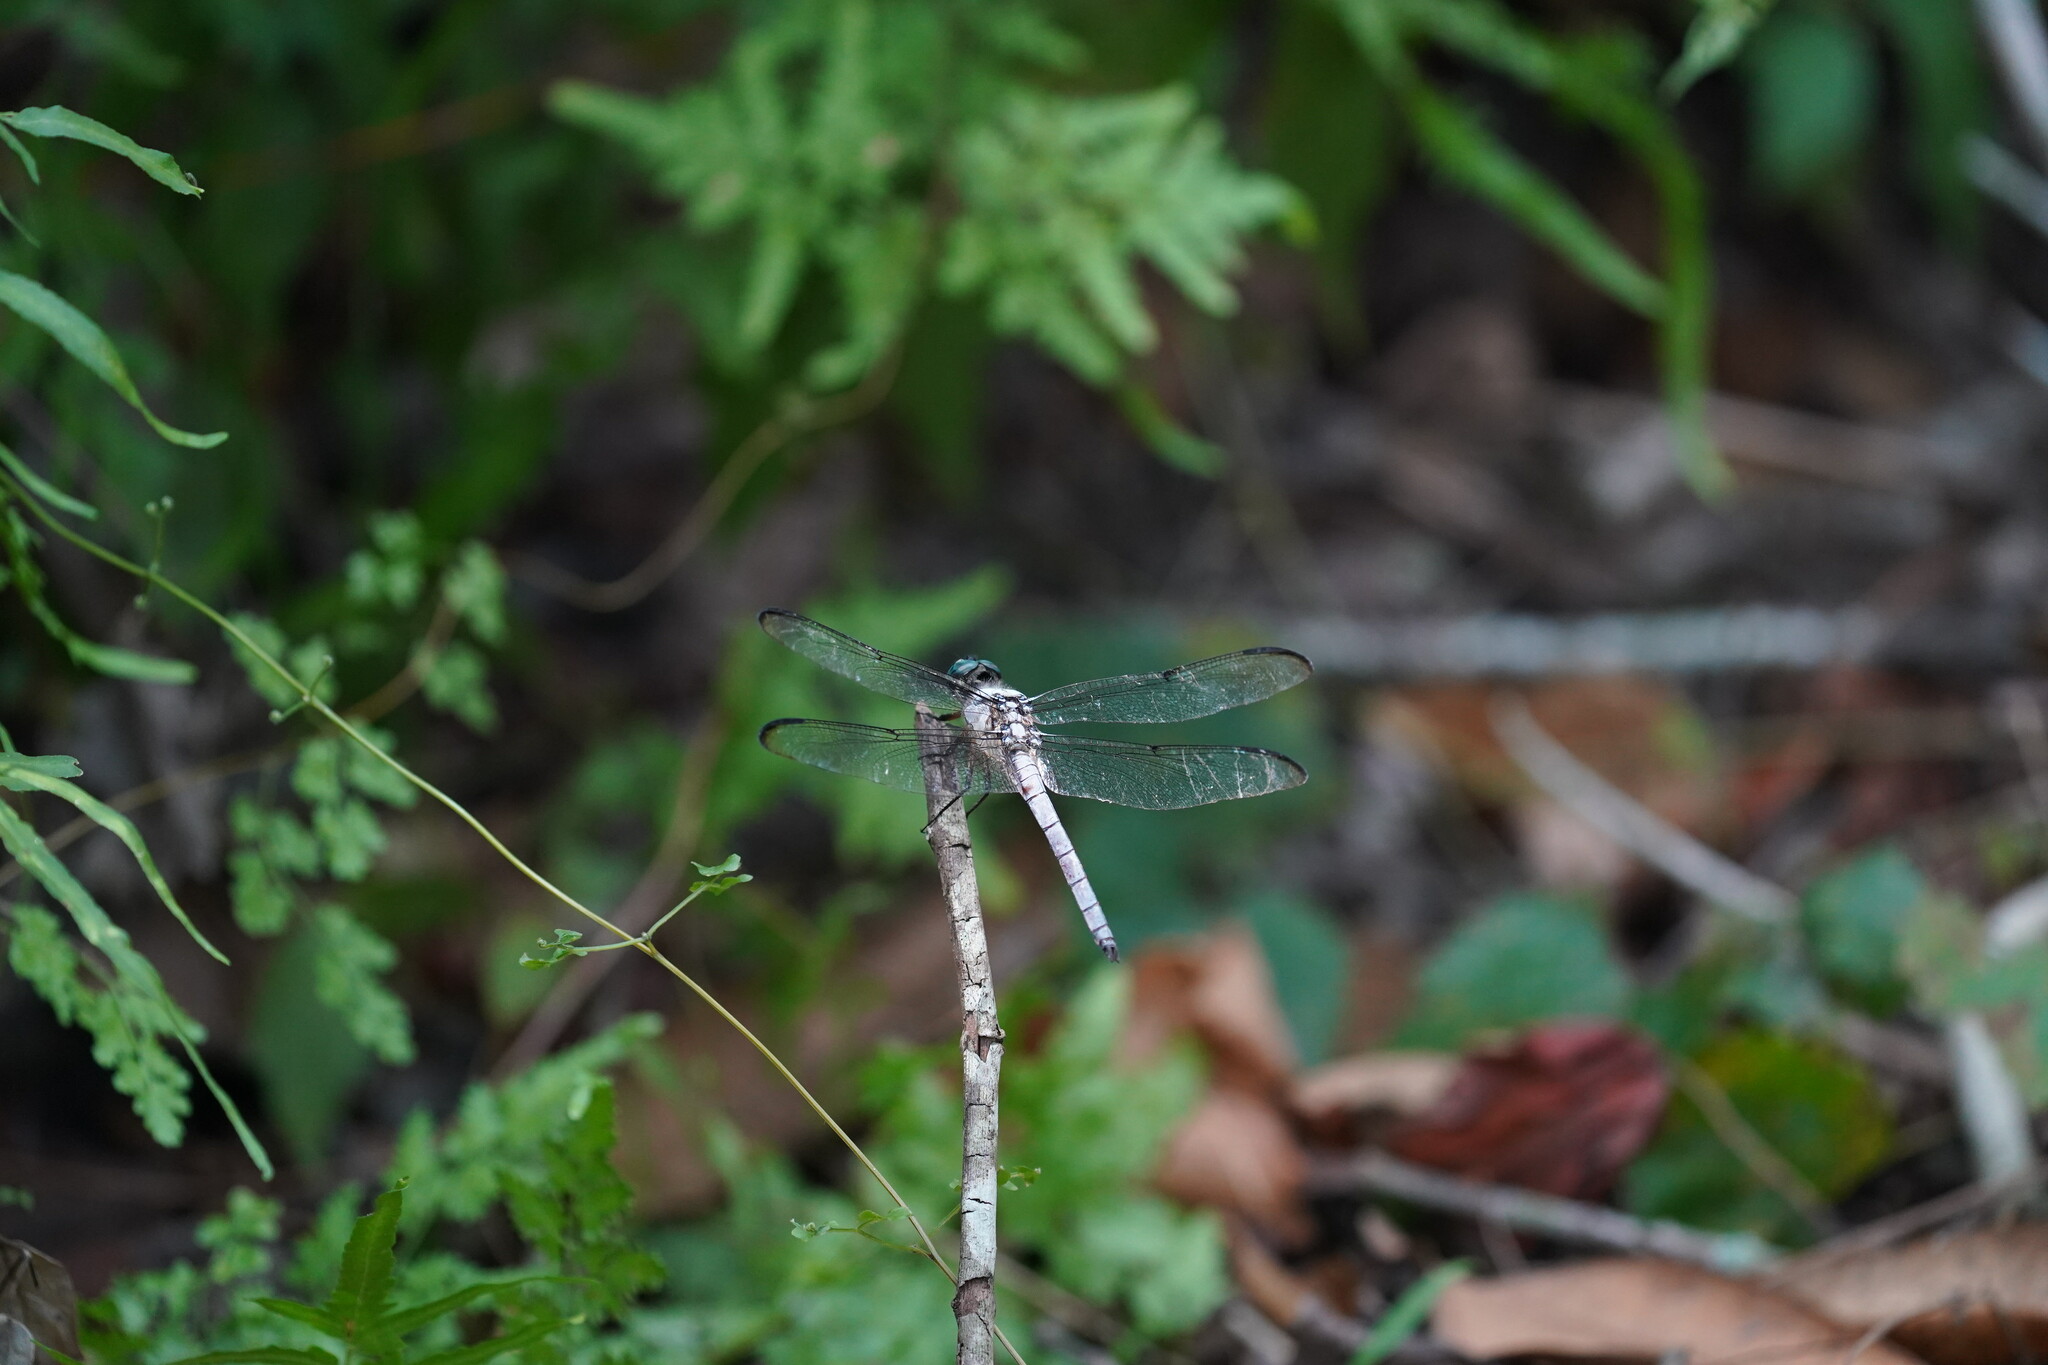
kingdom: Animalia
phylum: Arthropoda
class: Insecta
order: Odonata
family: Libellulidae
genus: Libellula
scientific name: Libellula vibrans
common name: Great blue skimmer
